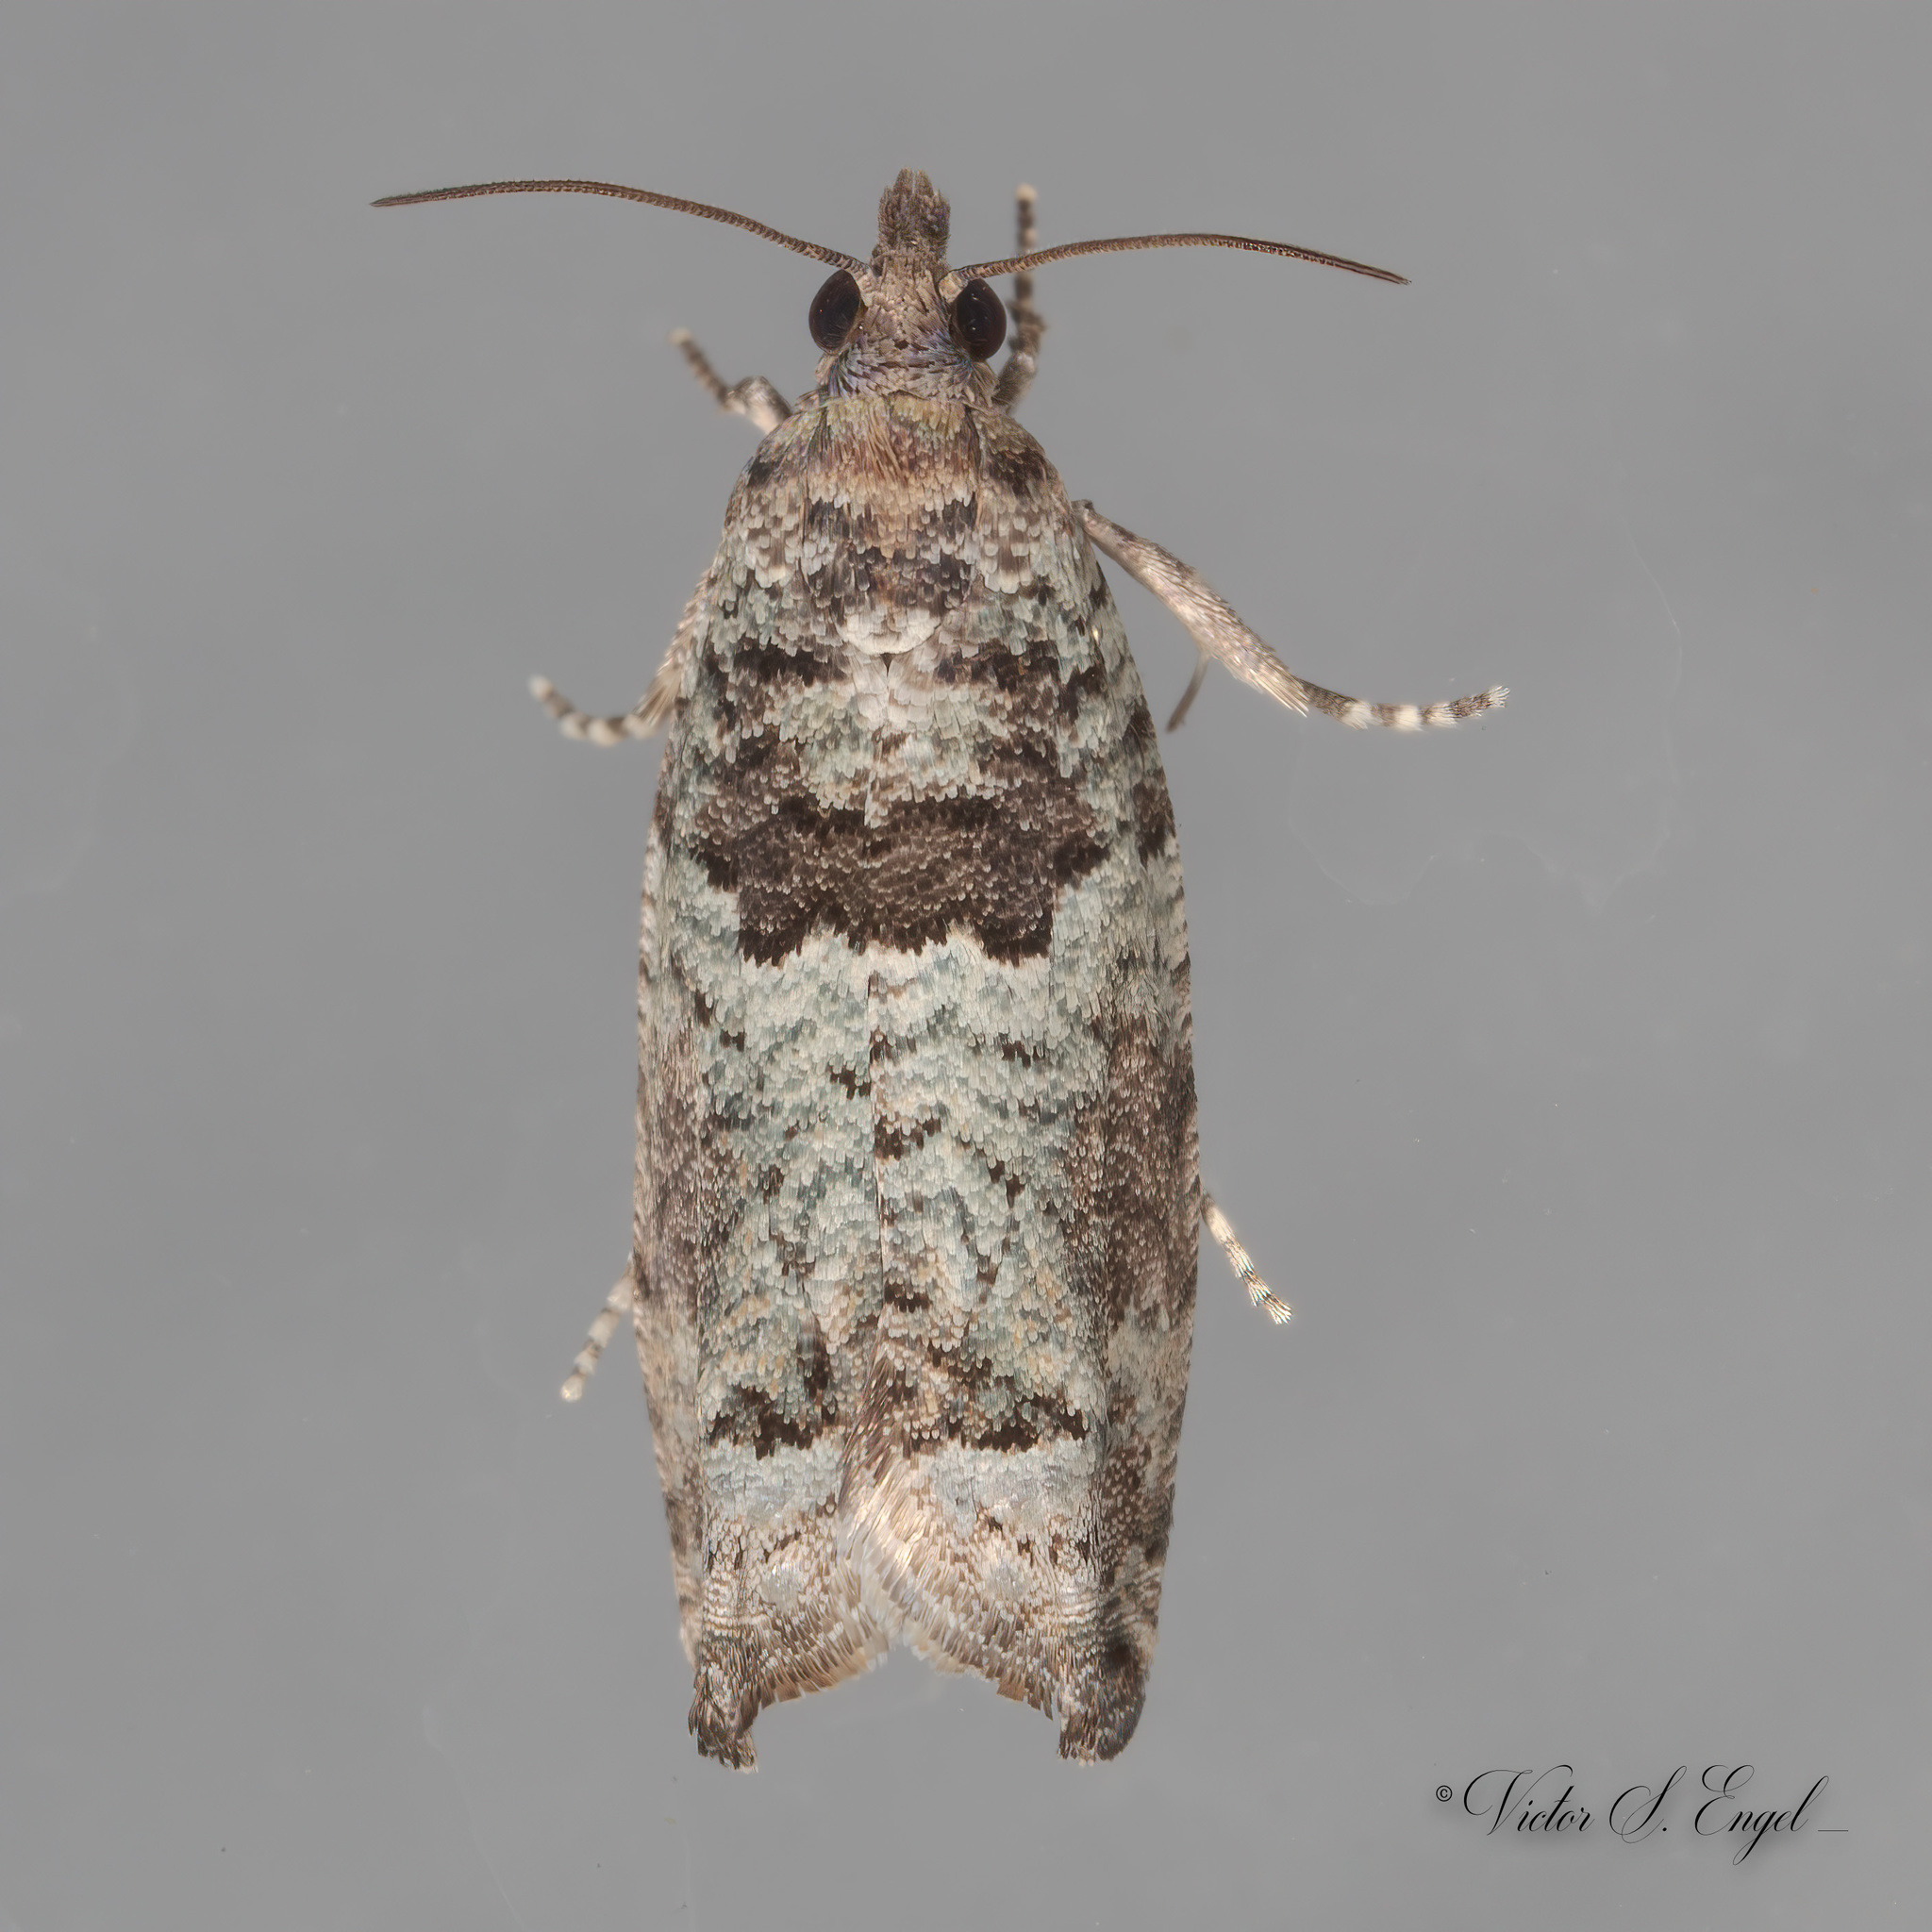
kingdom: Animalia
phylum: Arthropoda
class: Insecta
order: Lepidoptera
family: Tortricidae
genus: Pseudexentera
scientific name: Pseudexentera knudsoni
